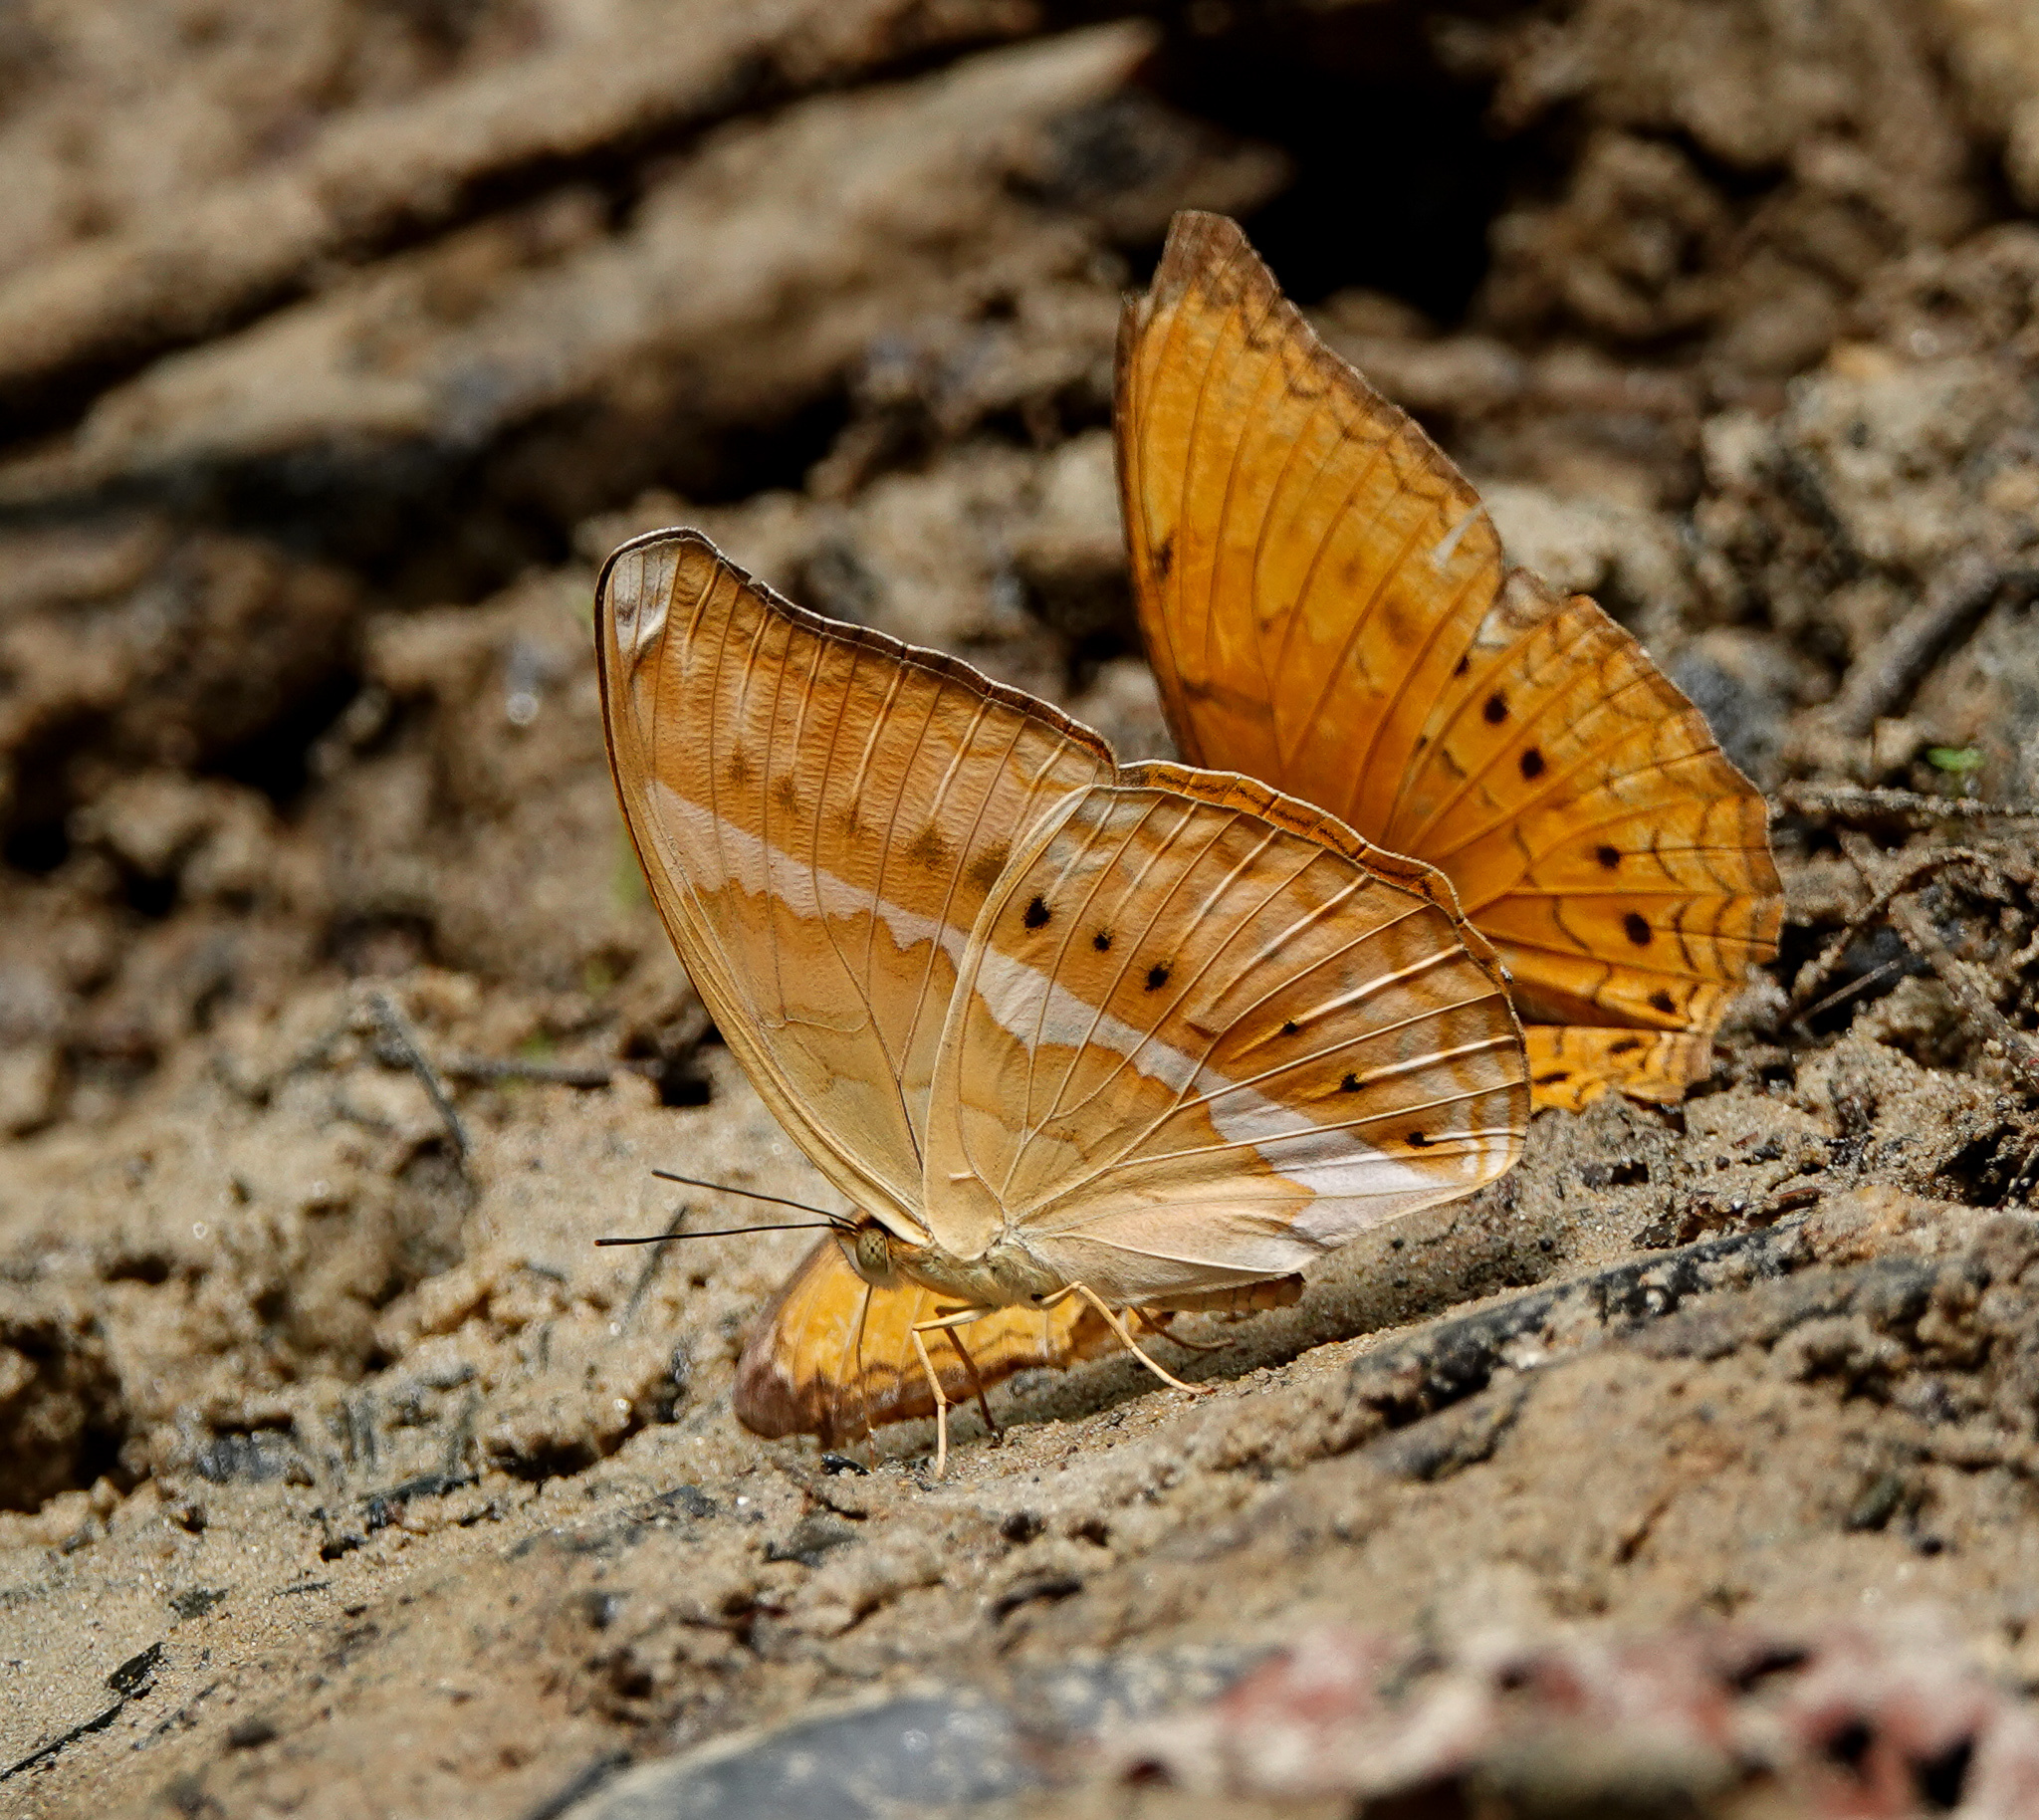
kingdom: Animalia
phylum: Arthropoda
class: Insecta
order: Lepidoptera
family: Nymphalidae
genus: Cirrochroa
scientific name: Cirrochroa aoris
